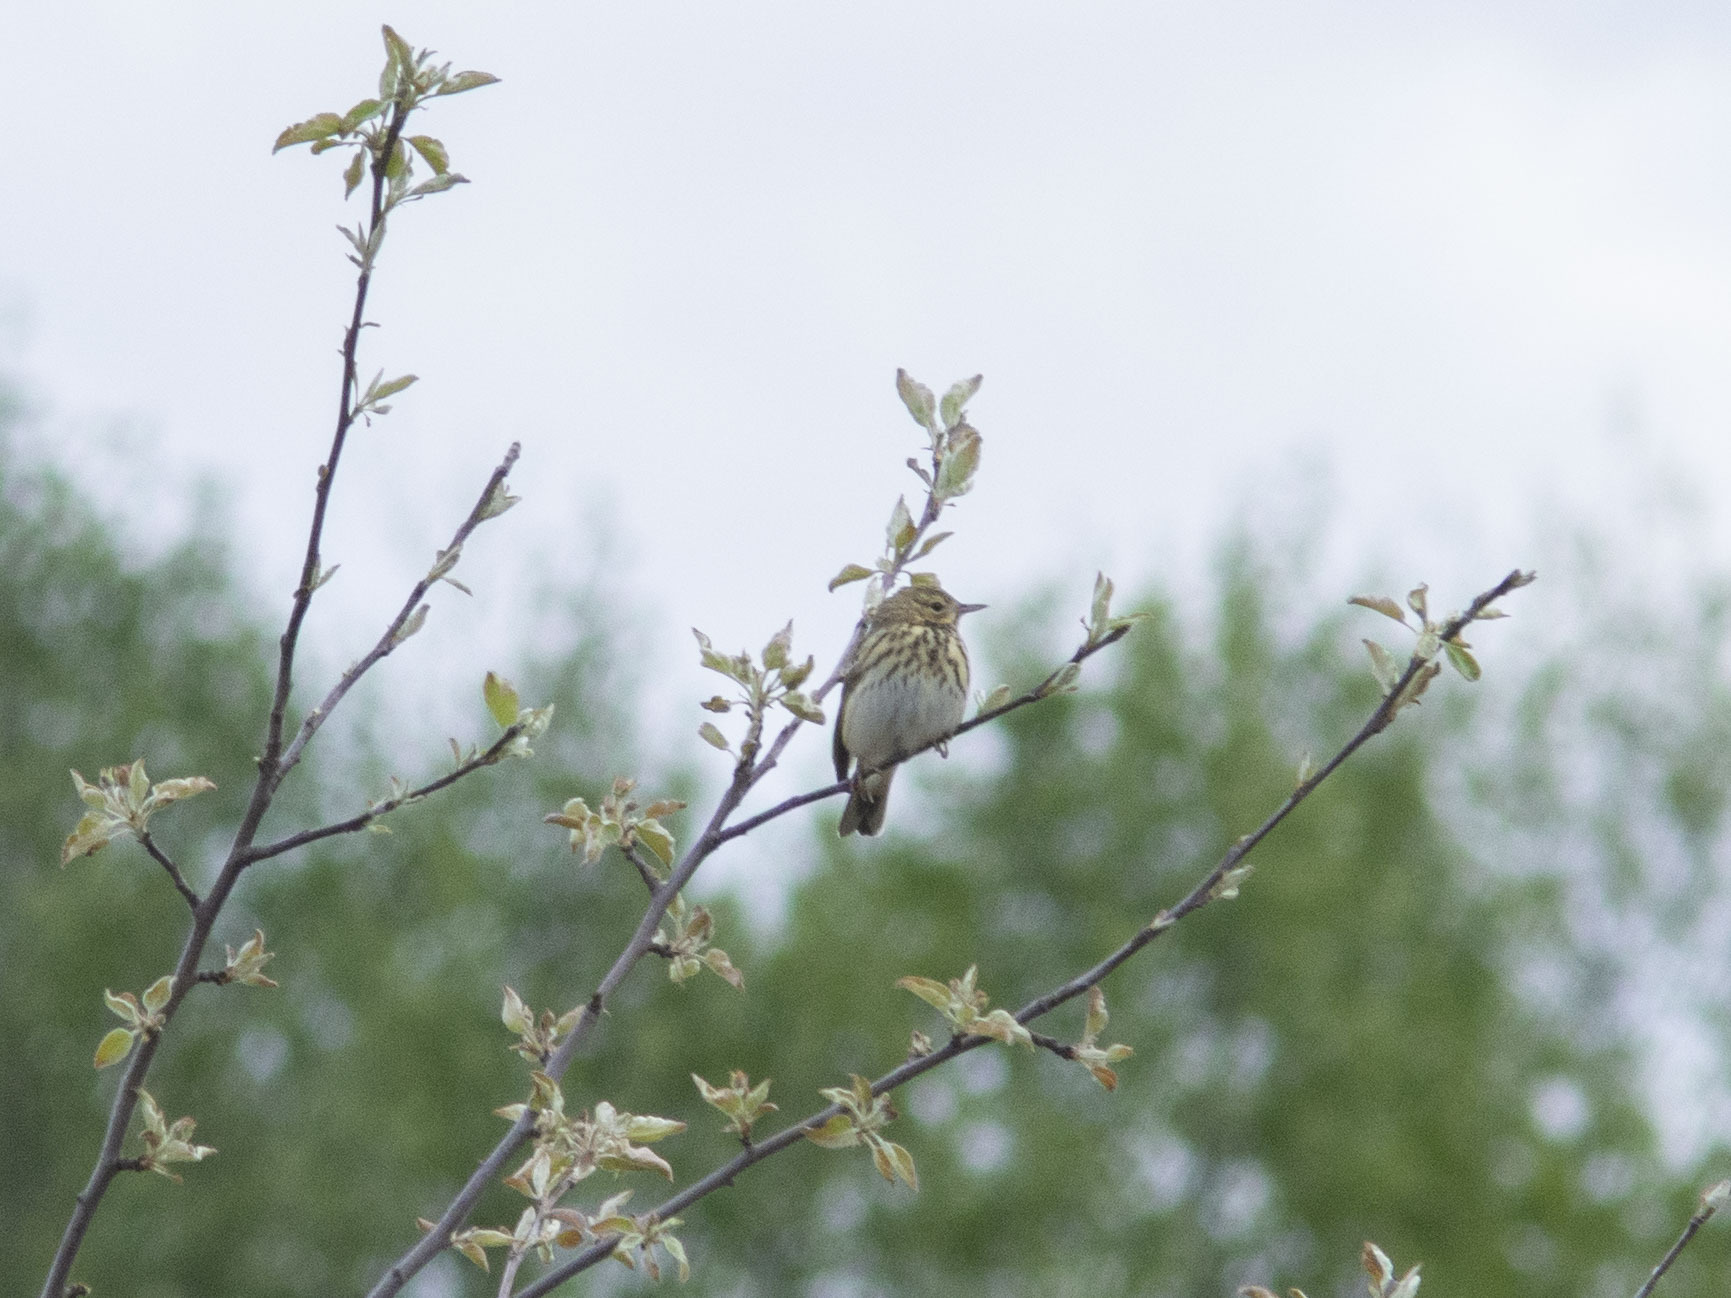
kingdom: Animalia
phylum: Chordata
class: Aves
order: Passeriformes
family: Motacillidae
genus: Anthus
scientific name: Anthus trivialis
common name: Tree pipit
